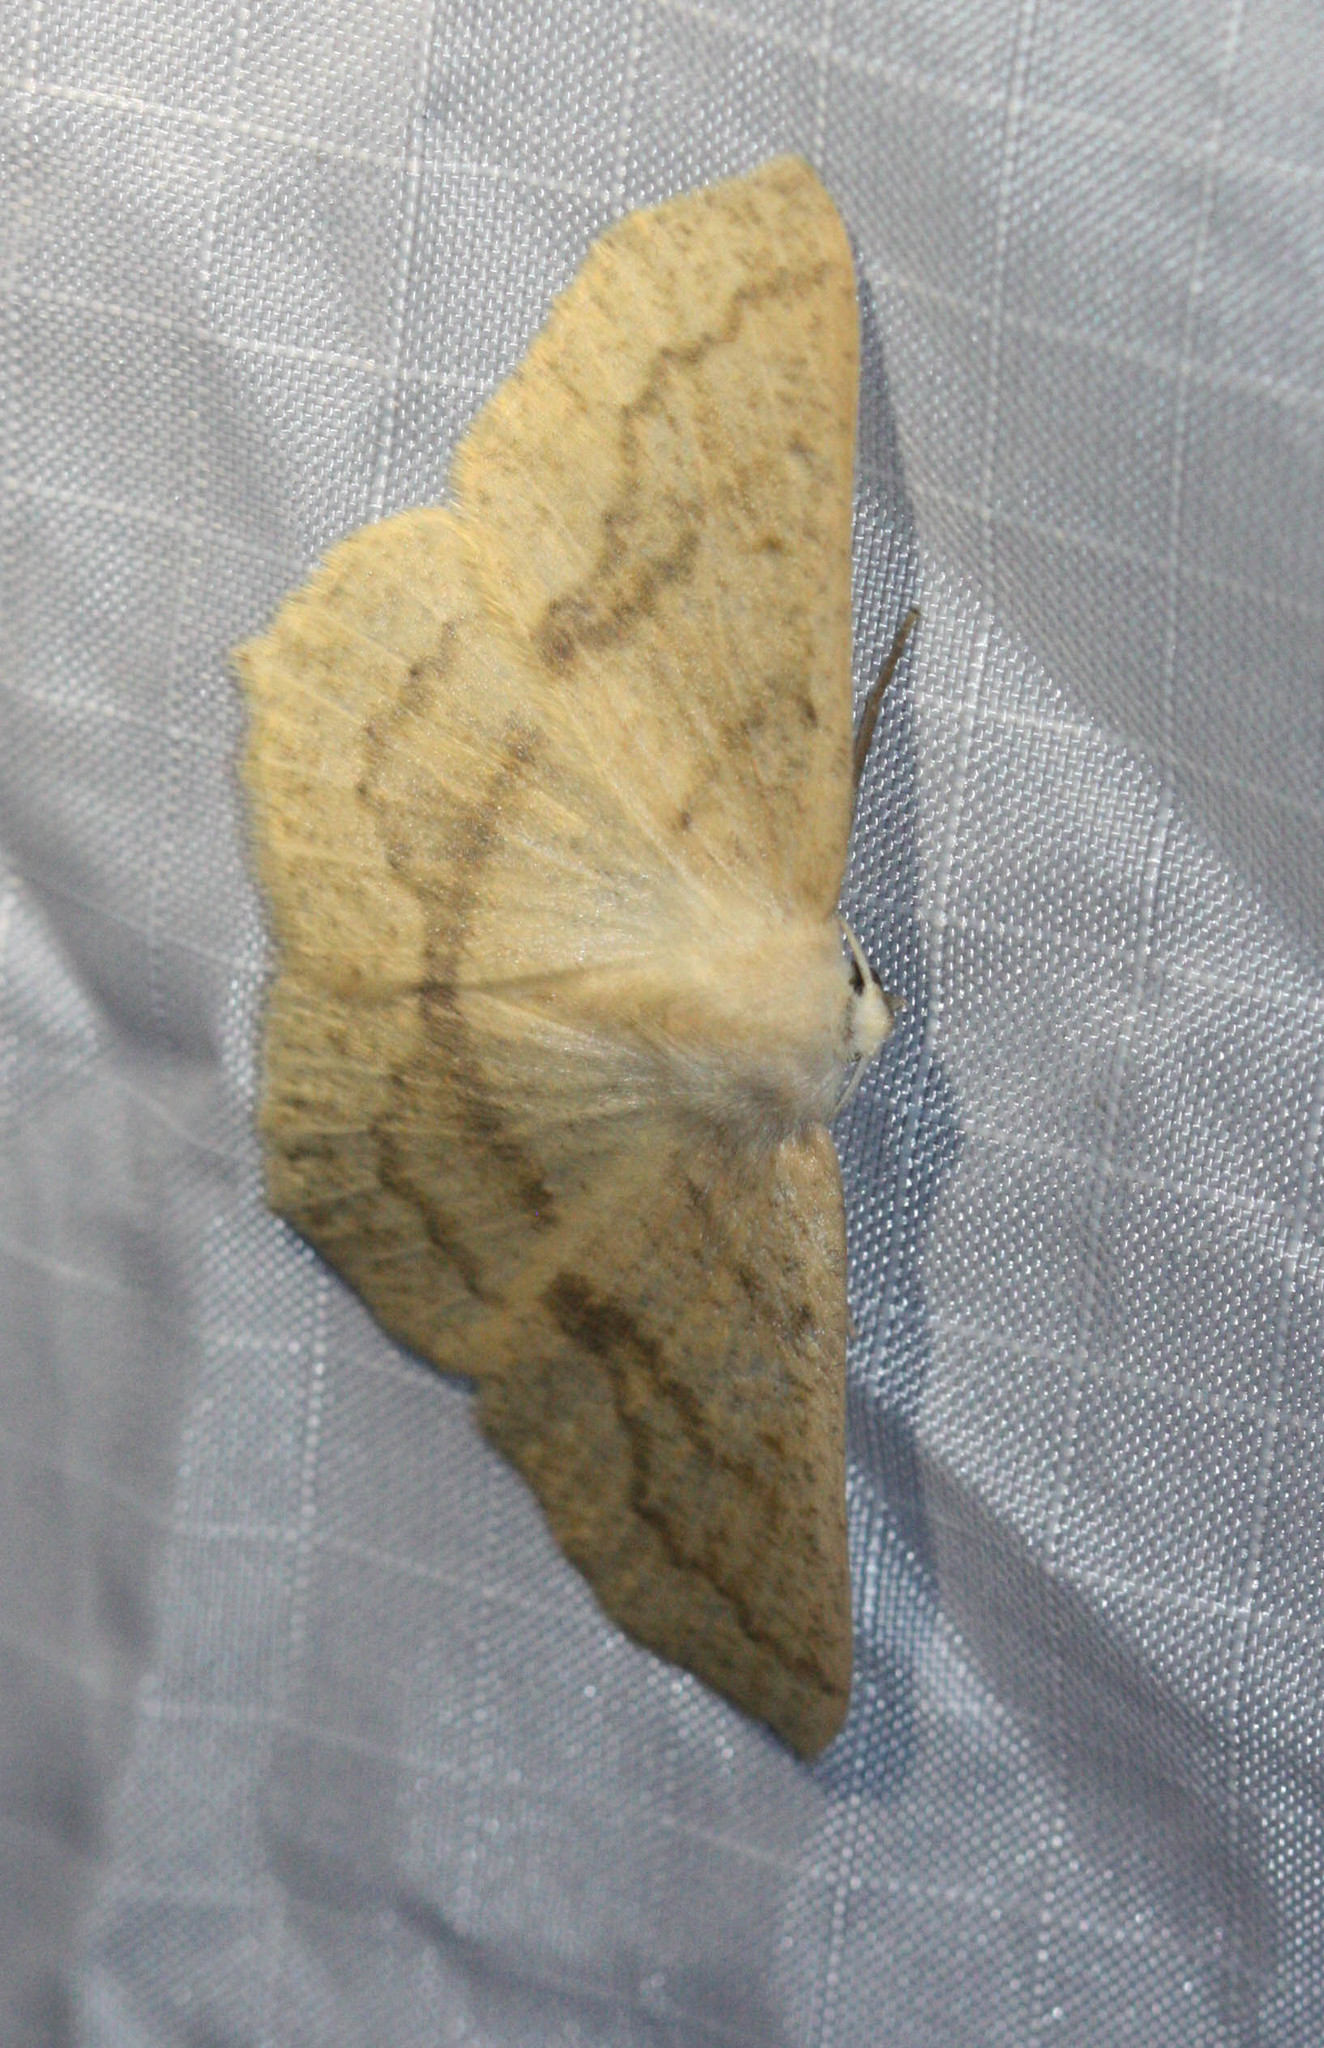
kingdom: Animalia
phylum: Arthropoda
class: Insecta
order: Lepidoptera
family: Geometridae
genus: Sabulodes
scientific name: Sabulodes aegrotata
